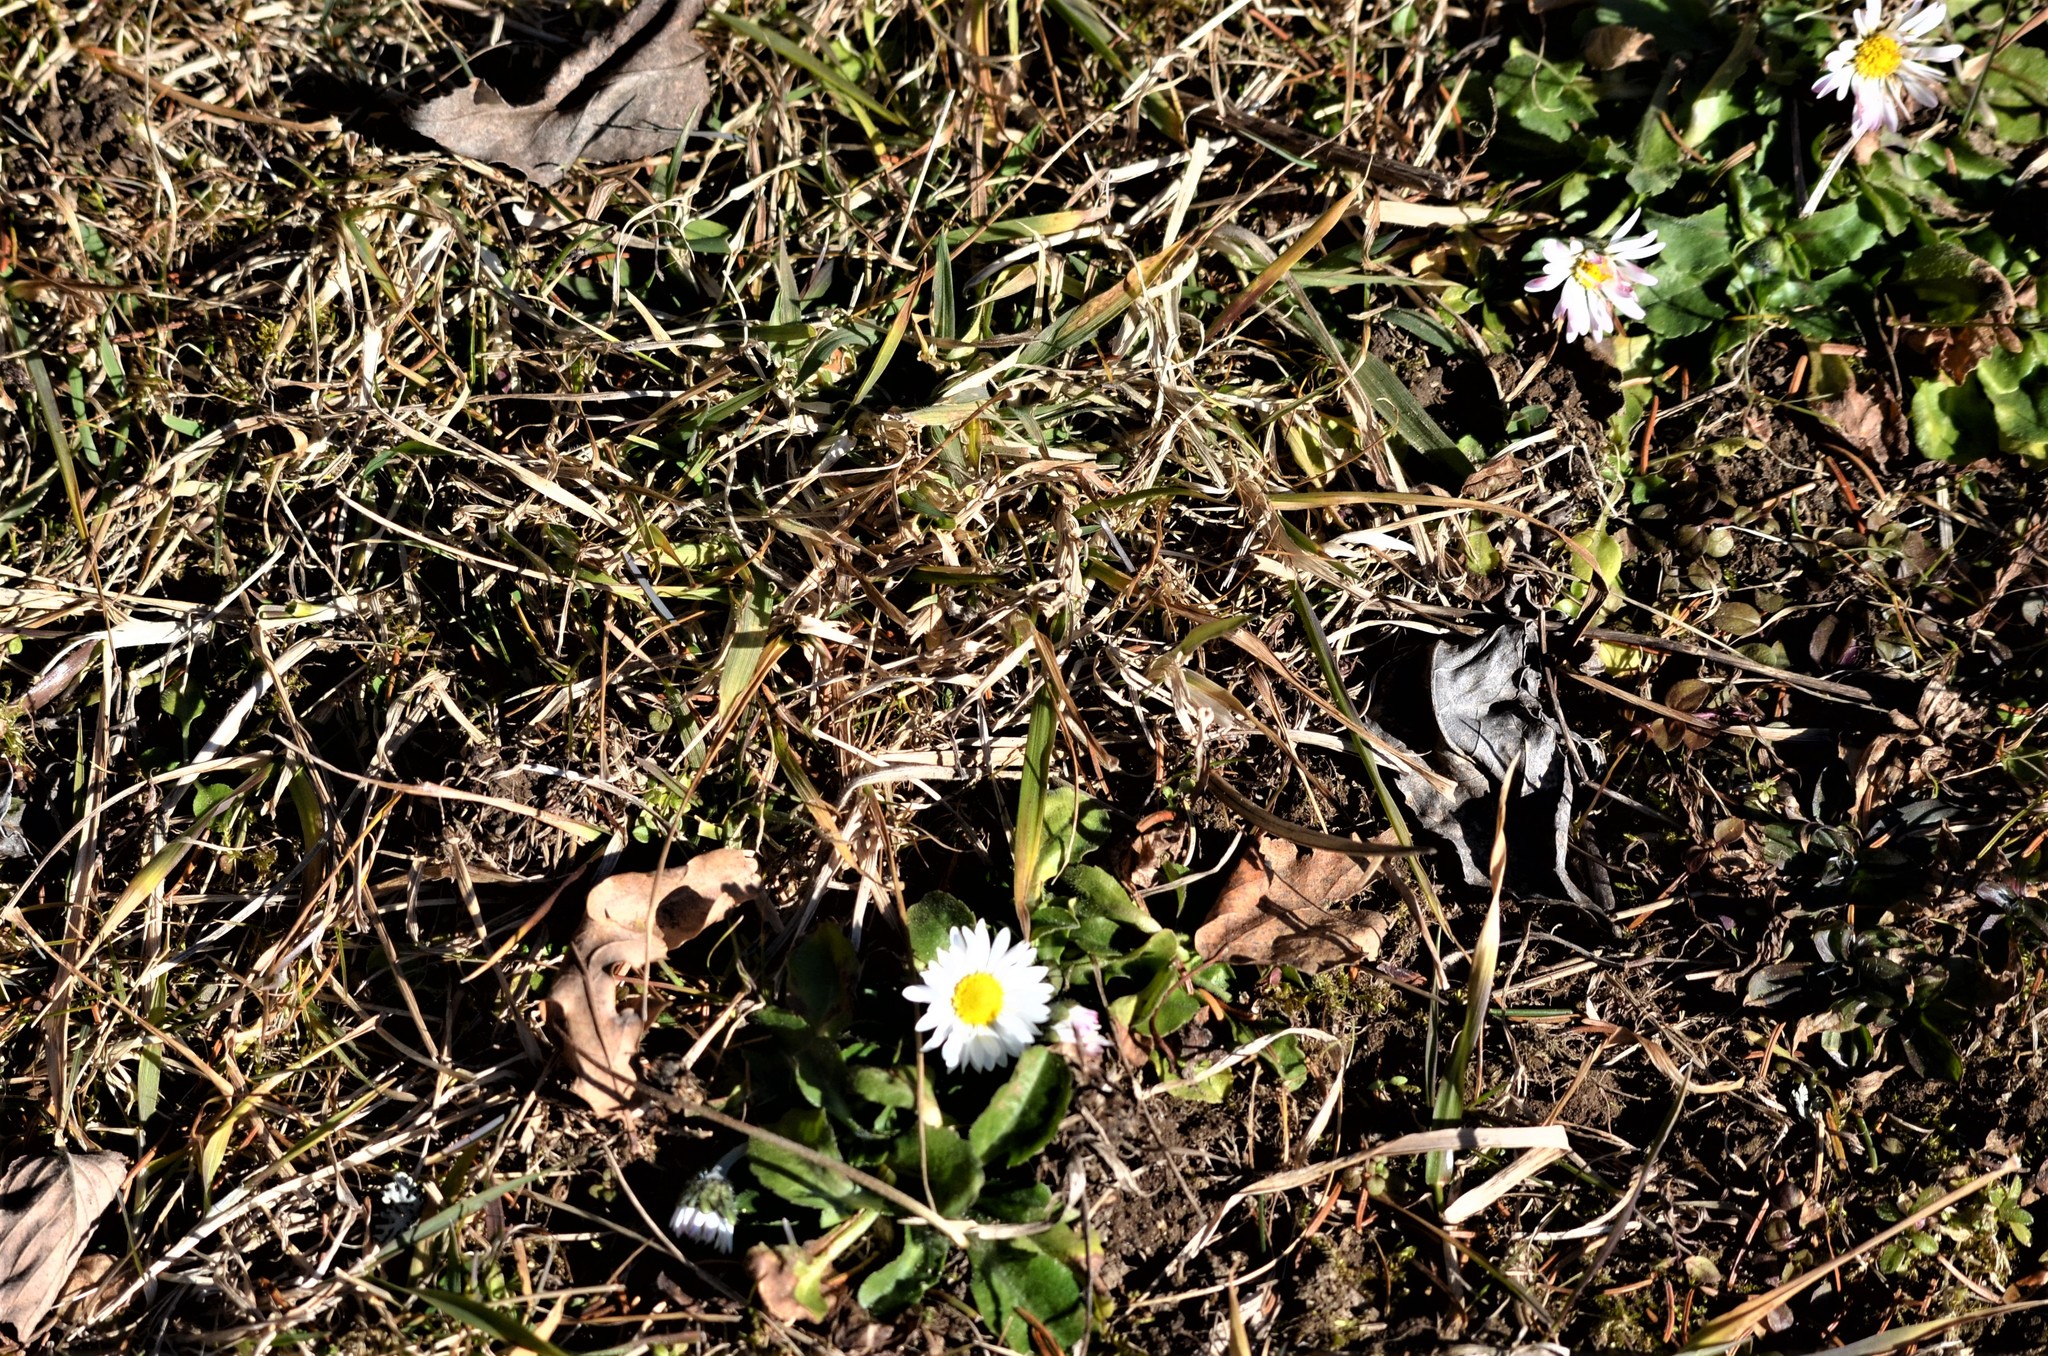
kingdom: Plantae
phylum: Tracheophyta
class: Magnoliopsida
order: Asterales
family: Asteraceae
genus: Bellis
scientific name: Bellis perennis
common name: Lawndaisy
